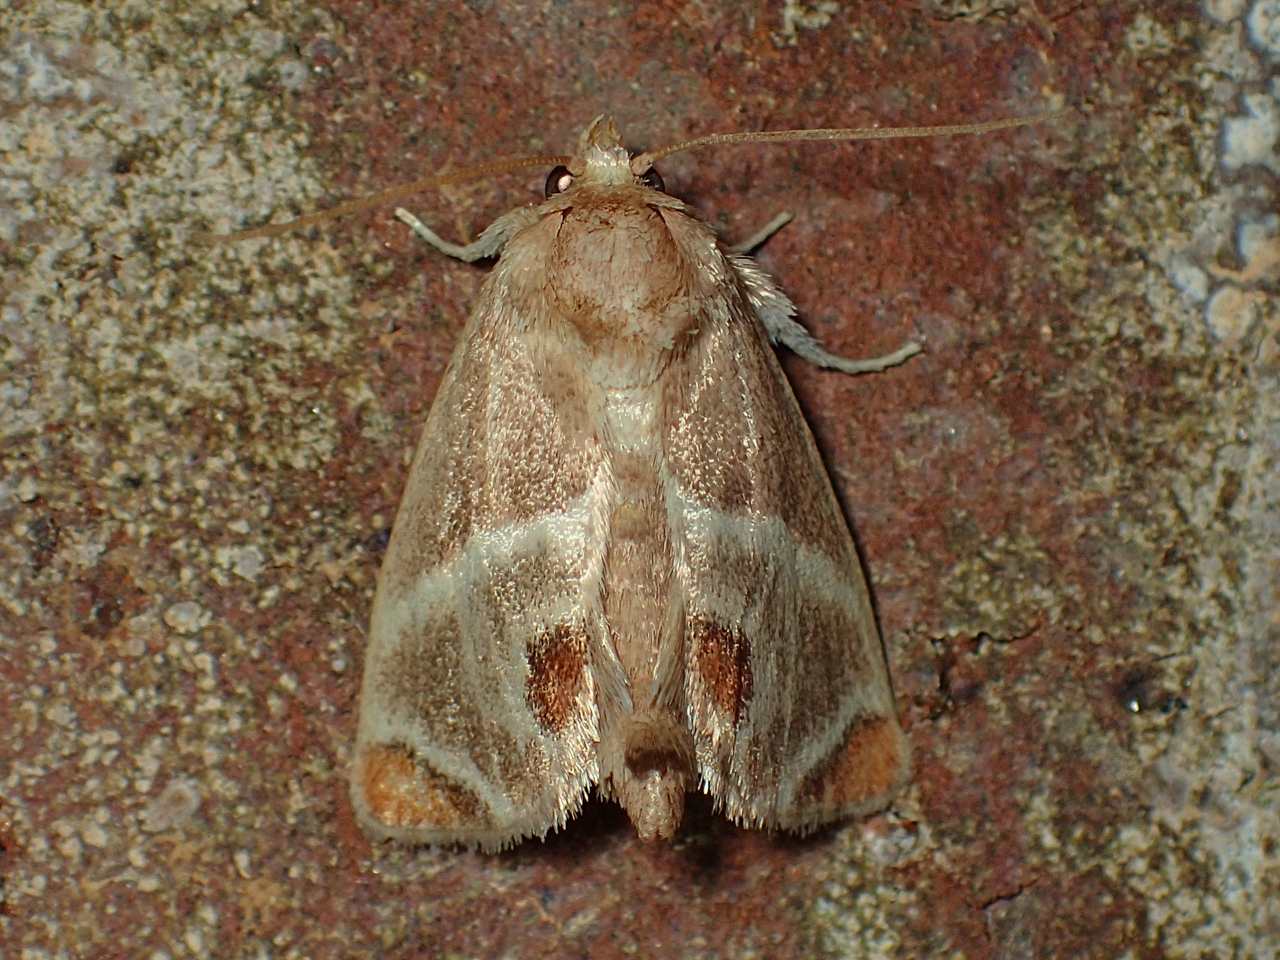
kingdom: Animalia
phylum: Arthropoda
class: Insecta
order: Lepidoptera
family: Limacodidae
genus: Apoda
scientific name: Apoda biguttata
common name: Shagreened slug moth
